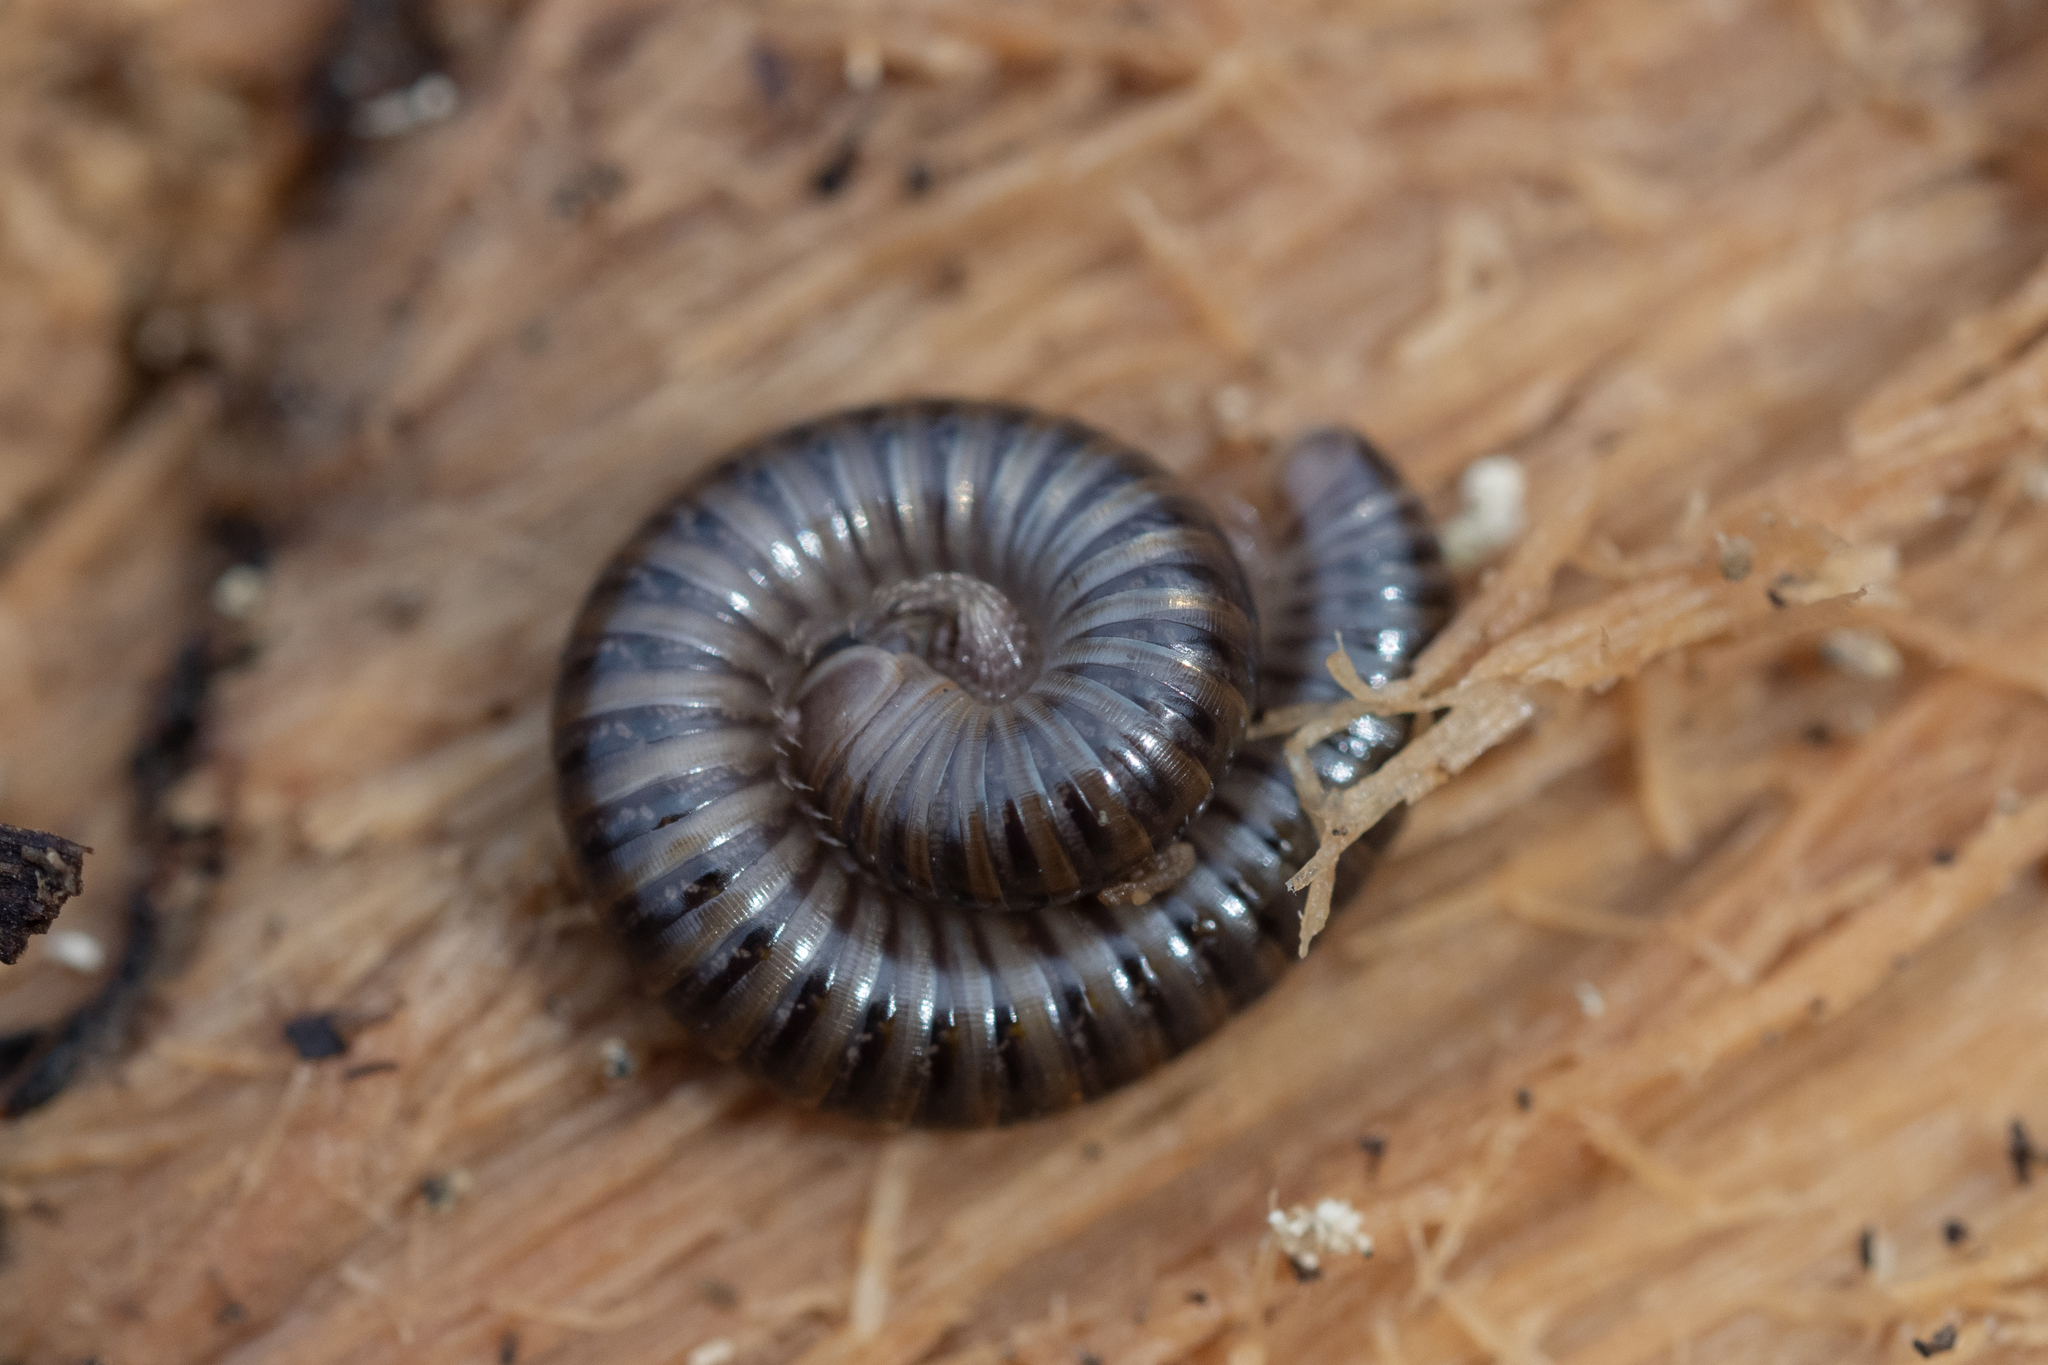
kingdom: Animalia
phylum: Arthropoda
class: Diplopoda
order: Julida
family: Julidae
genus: Cylindroiulus
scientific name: Cylindroiulus caeruleocinctus
